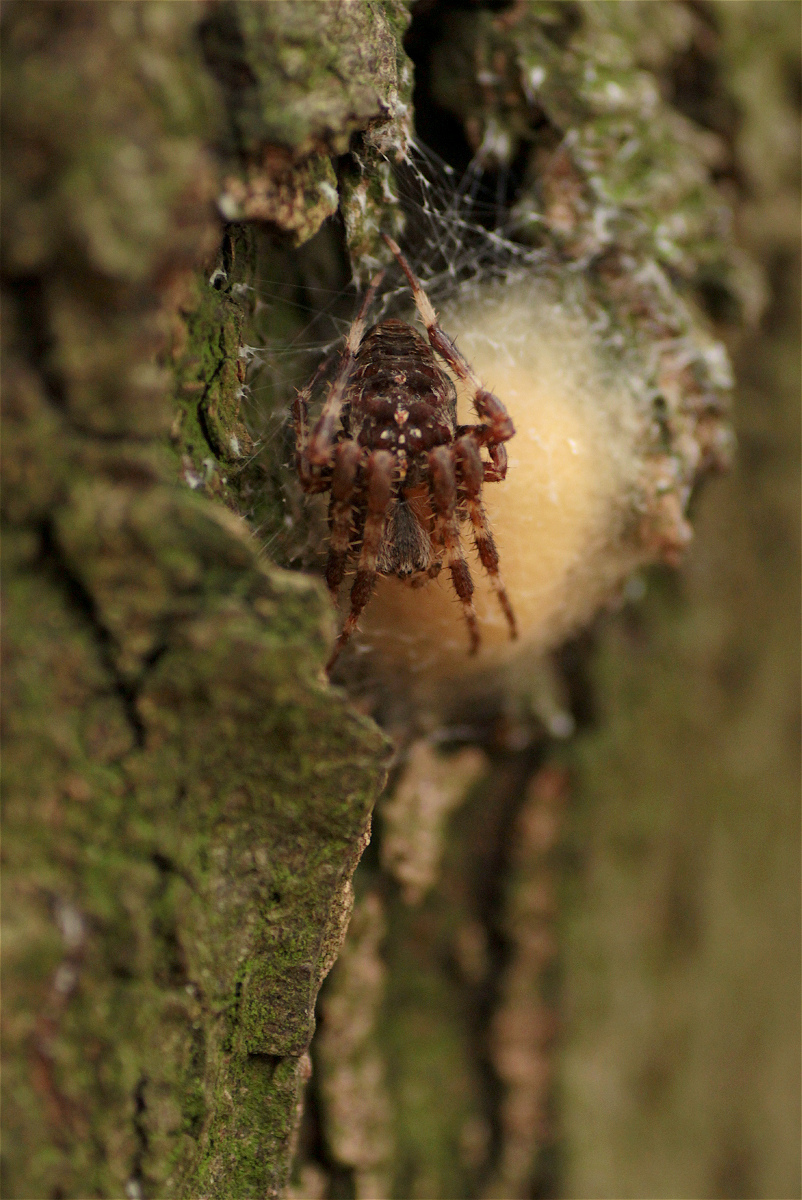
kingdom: Animalia
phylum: Arthropoda
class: Arachnida
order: Araneae
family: Araneidae
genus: Araneus
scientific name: Araneus diadematus
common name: Cross orbweaver
